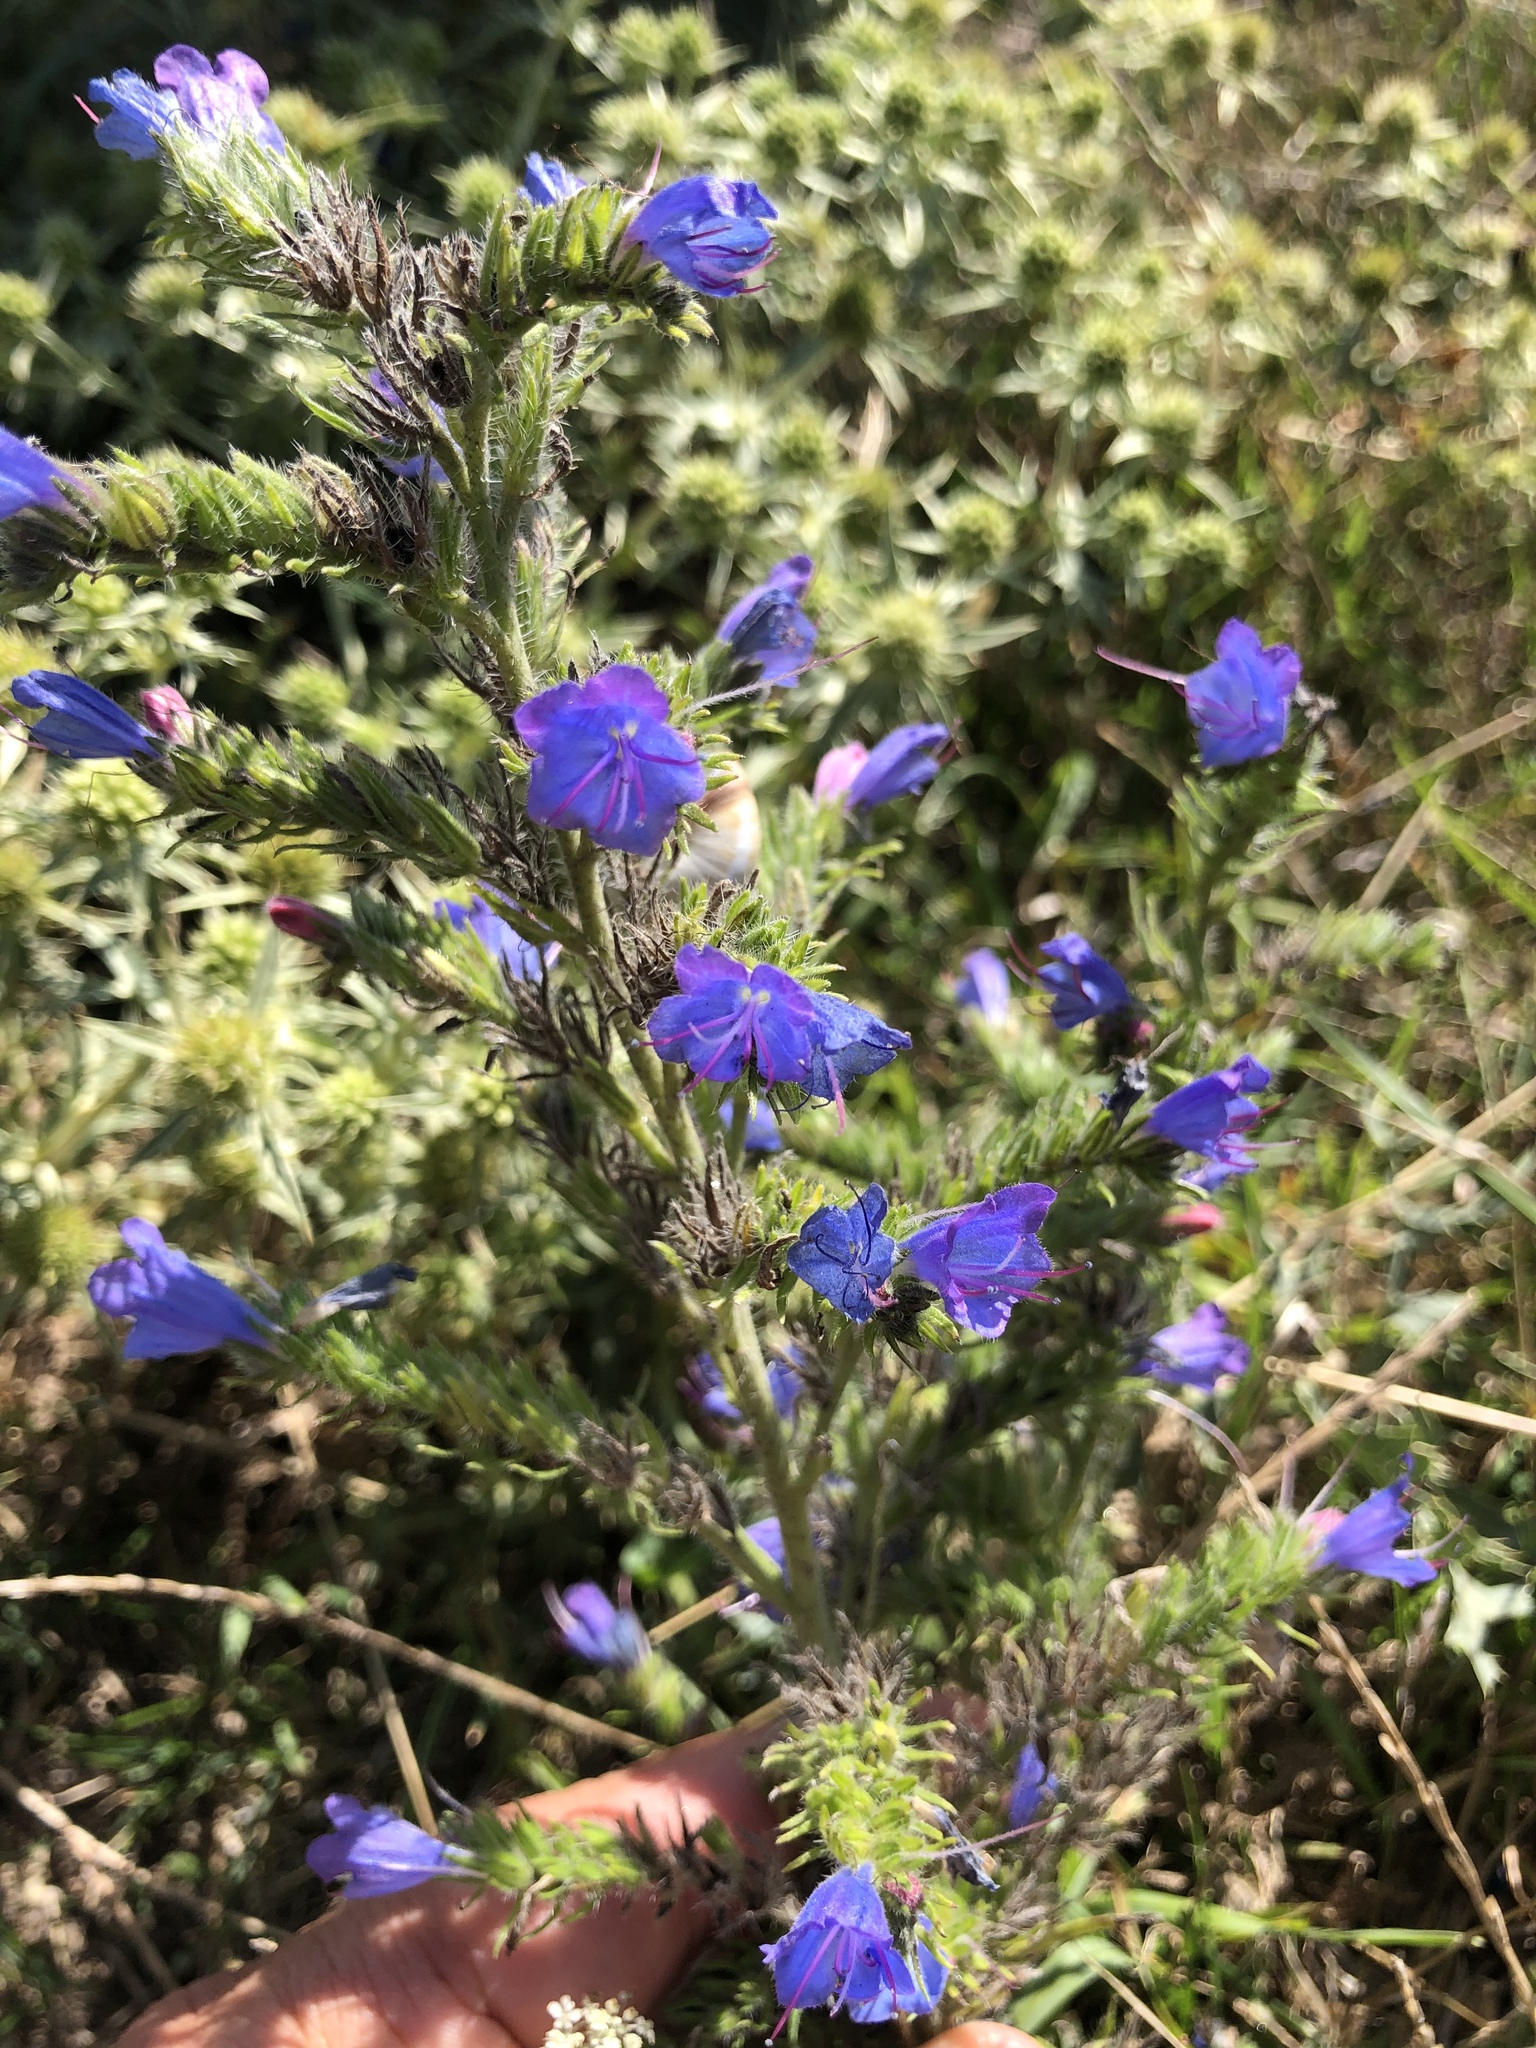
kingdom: Plantae
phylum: Tracheophyta
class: Magnoliopsida
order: Boraginales
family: Boraginaceae
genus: Echium
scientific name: Echium vulgare
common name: Common viper's bugloss
